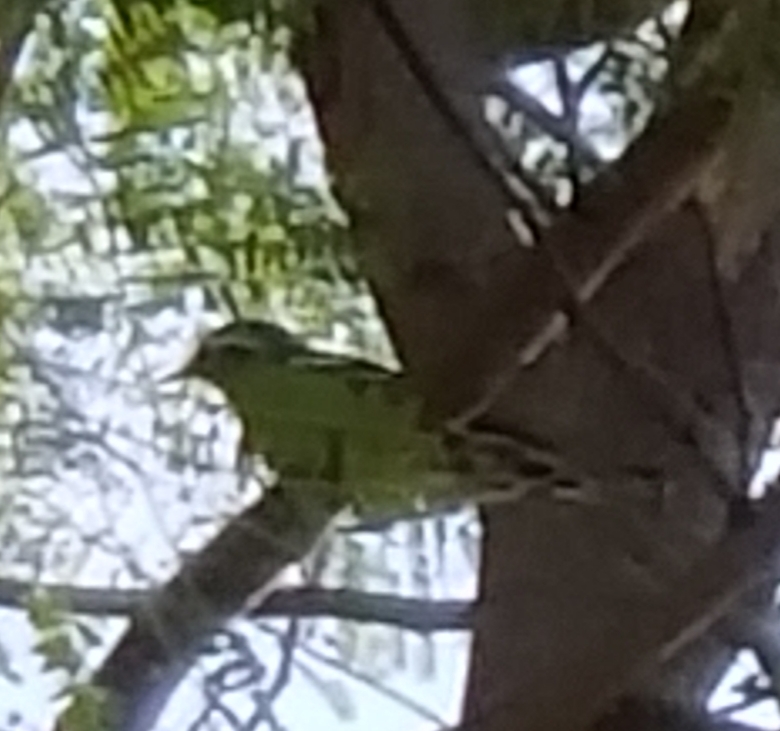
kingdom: Animalia
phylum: Chordata
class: Aves
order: Passeriformes
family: Parulidae
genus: Mniotilta
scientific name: Mniotilta varia
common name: Black-and-white warbler
